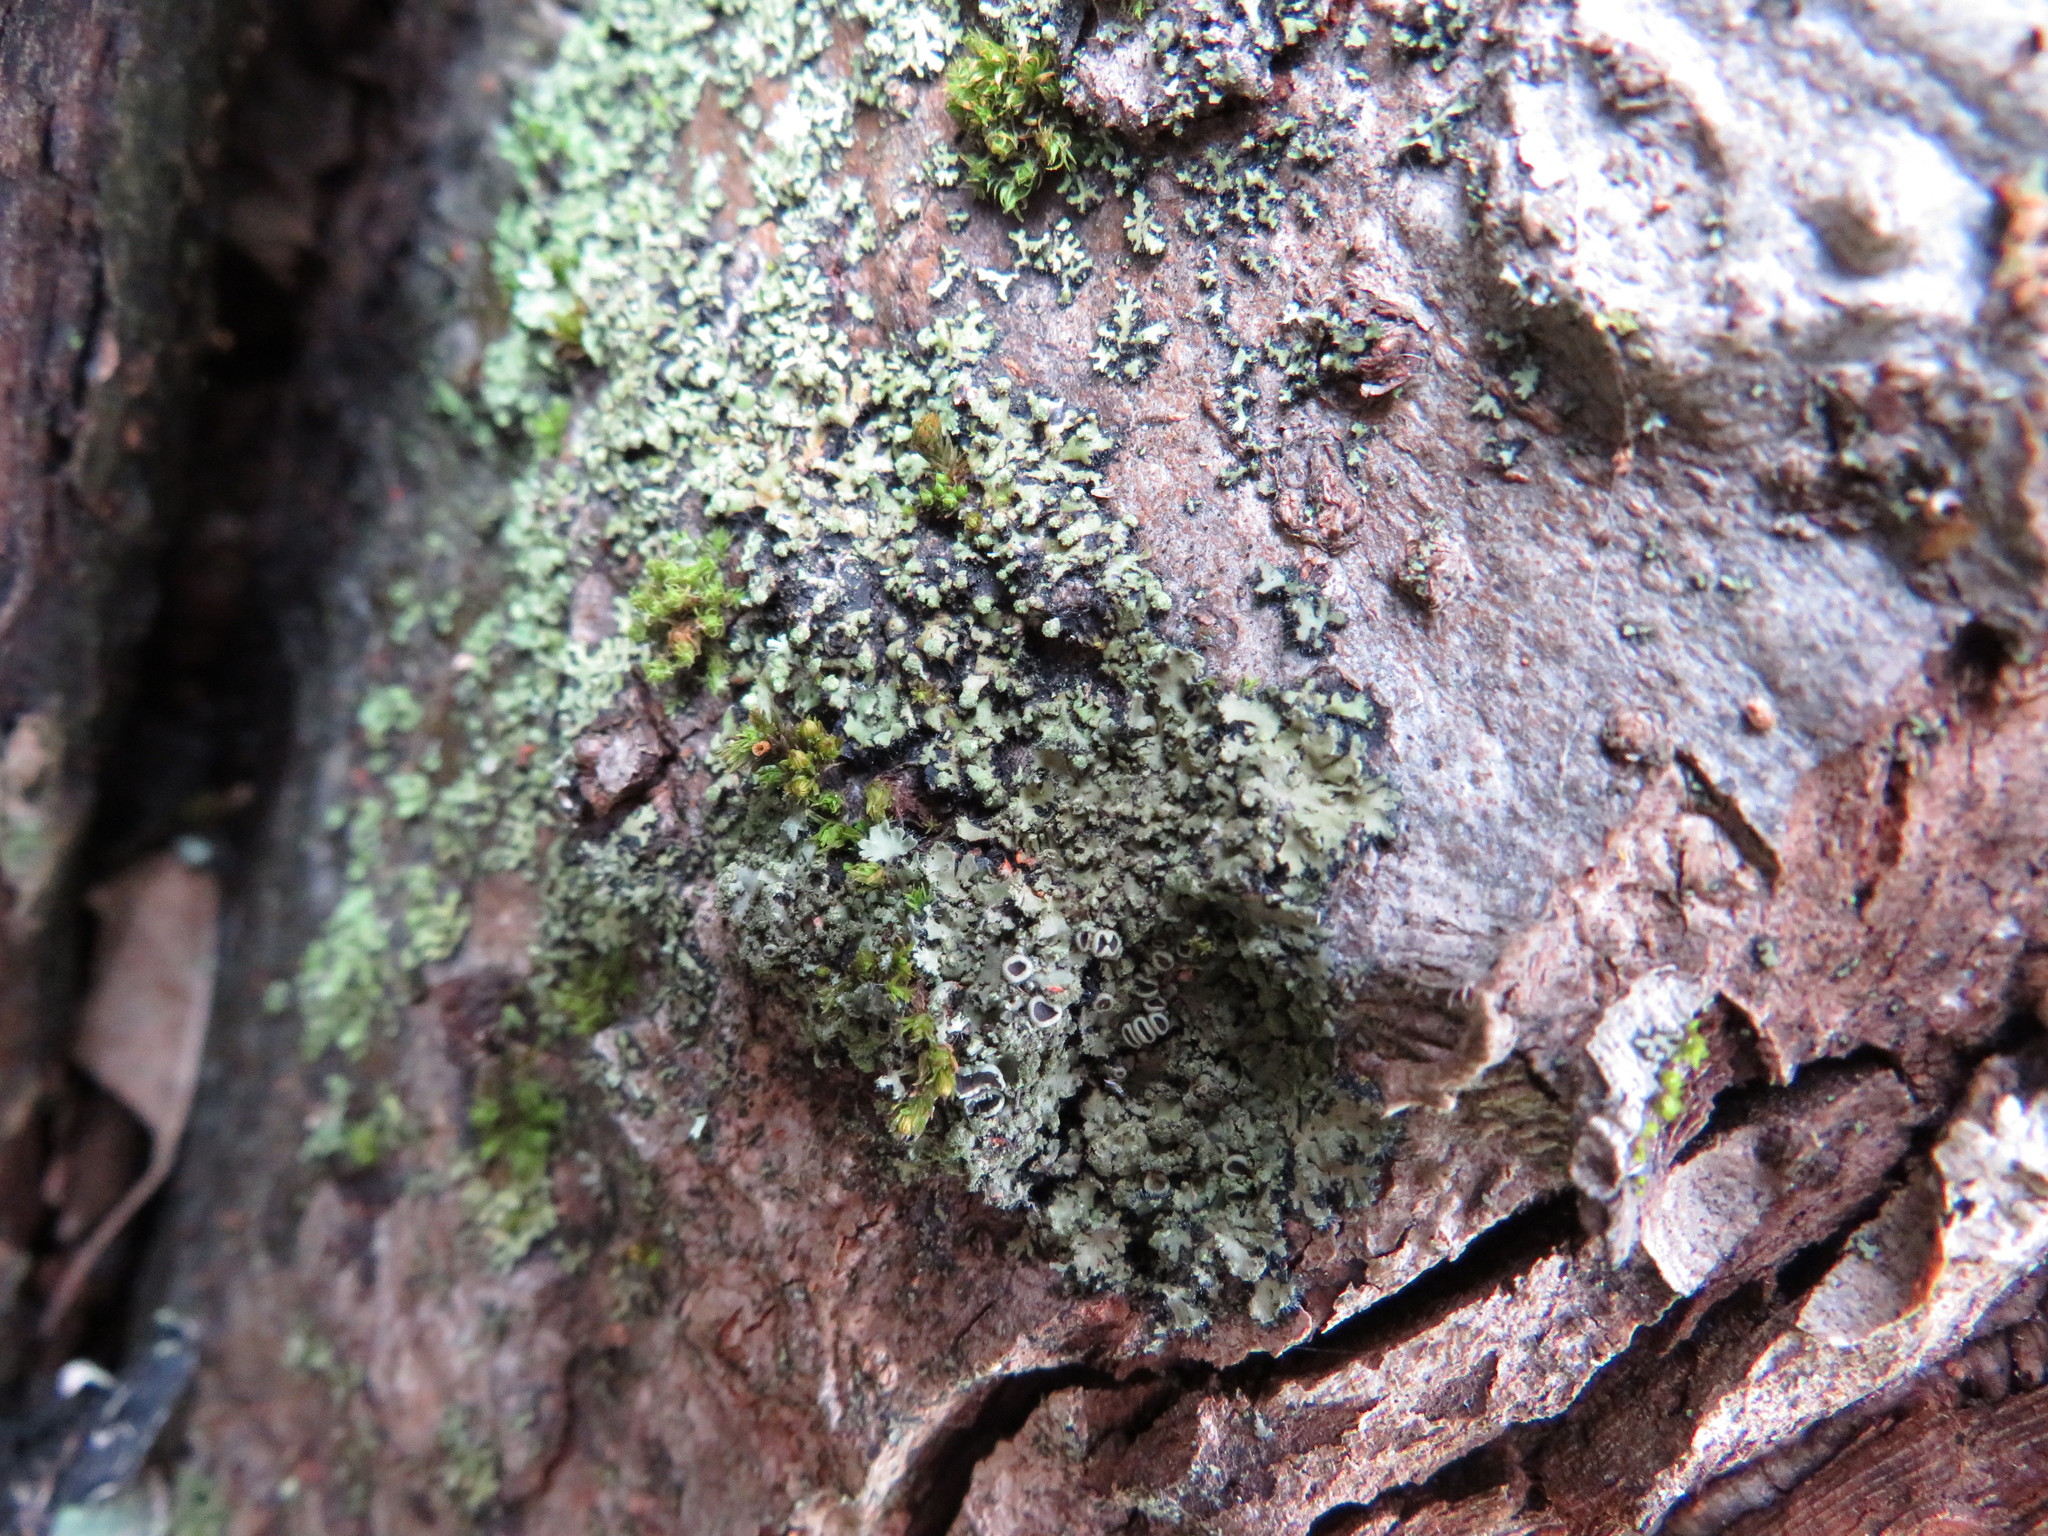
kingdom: Fungi
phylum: Ascomycota
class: Lecanoromycetes
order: Caliciales
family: Physciaceae
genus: Phaeophyscia
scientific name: Phaeophyscia rubropulchra
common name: Orange-cored shadow lichen
